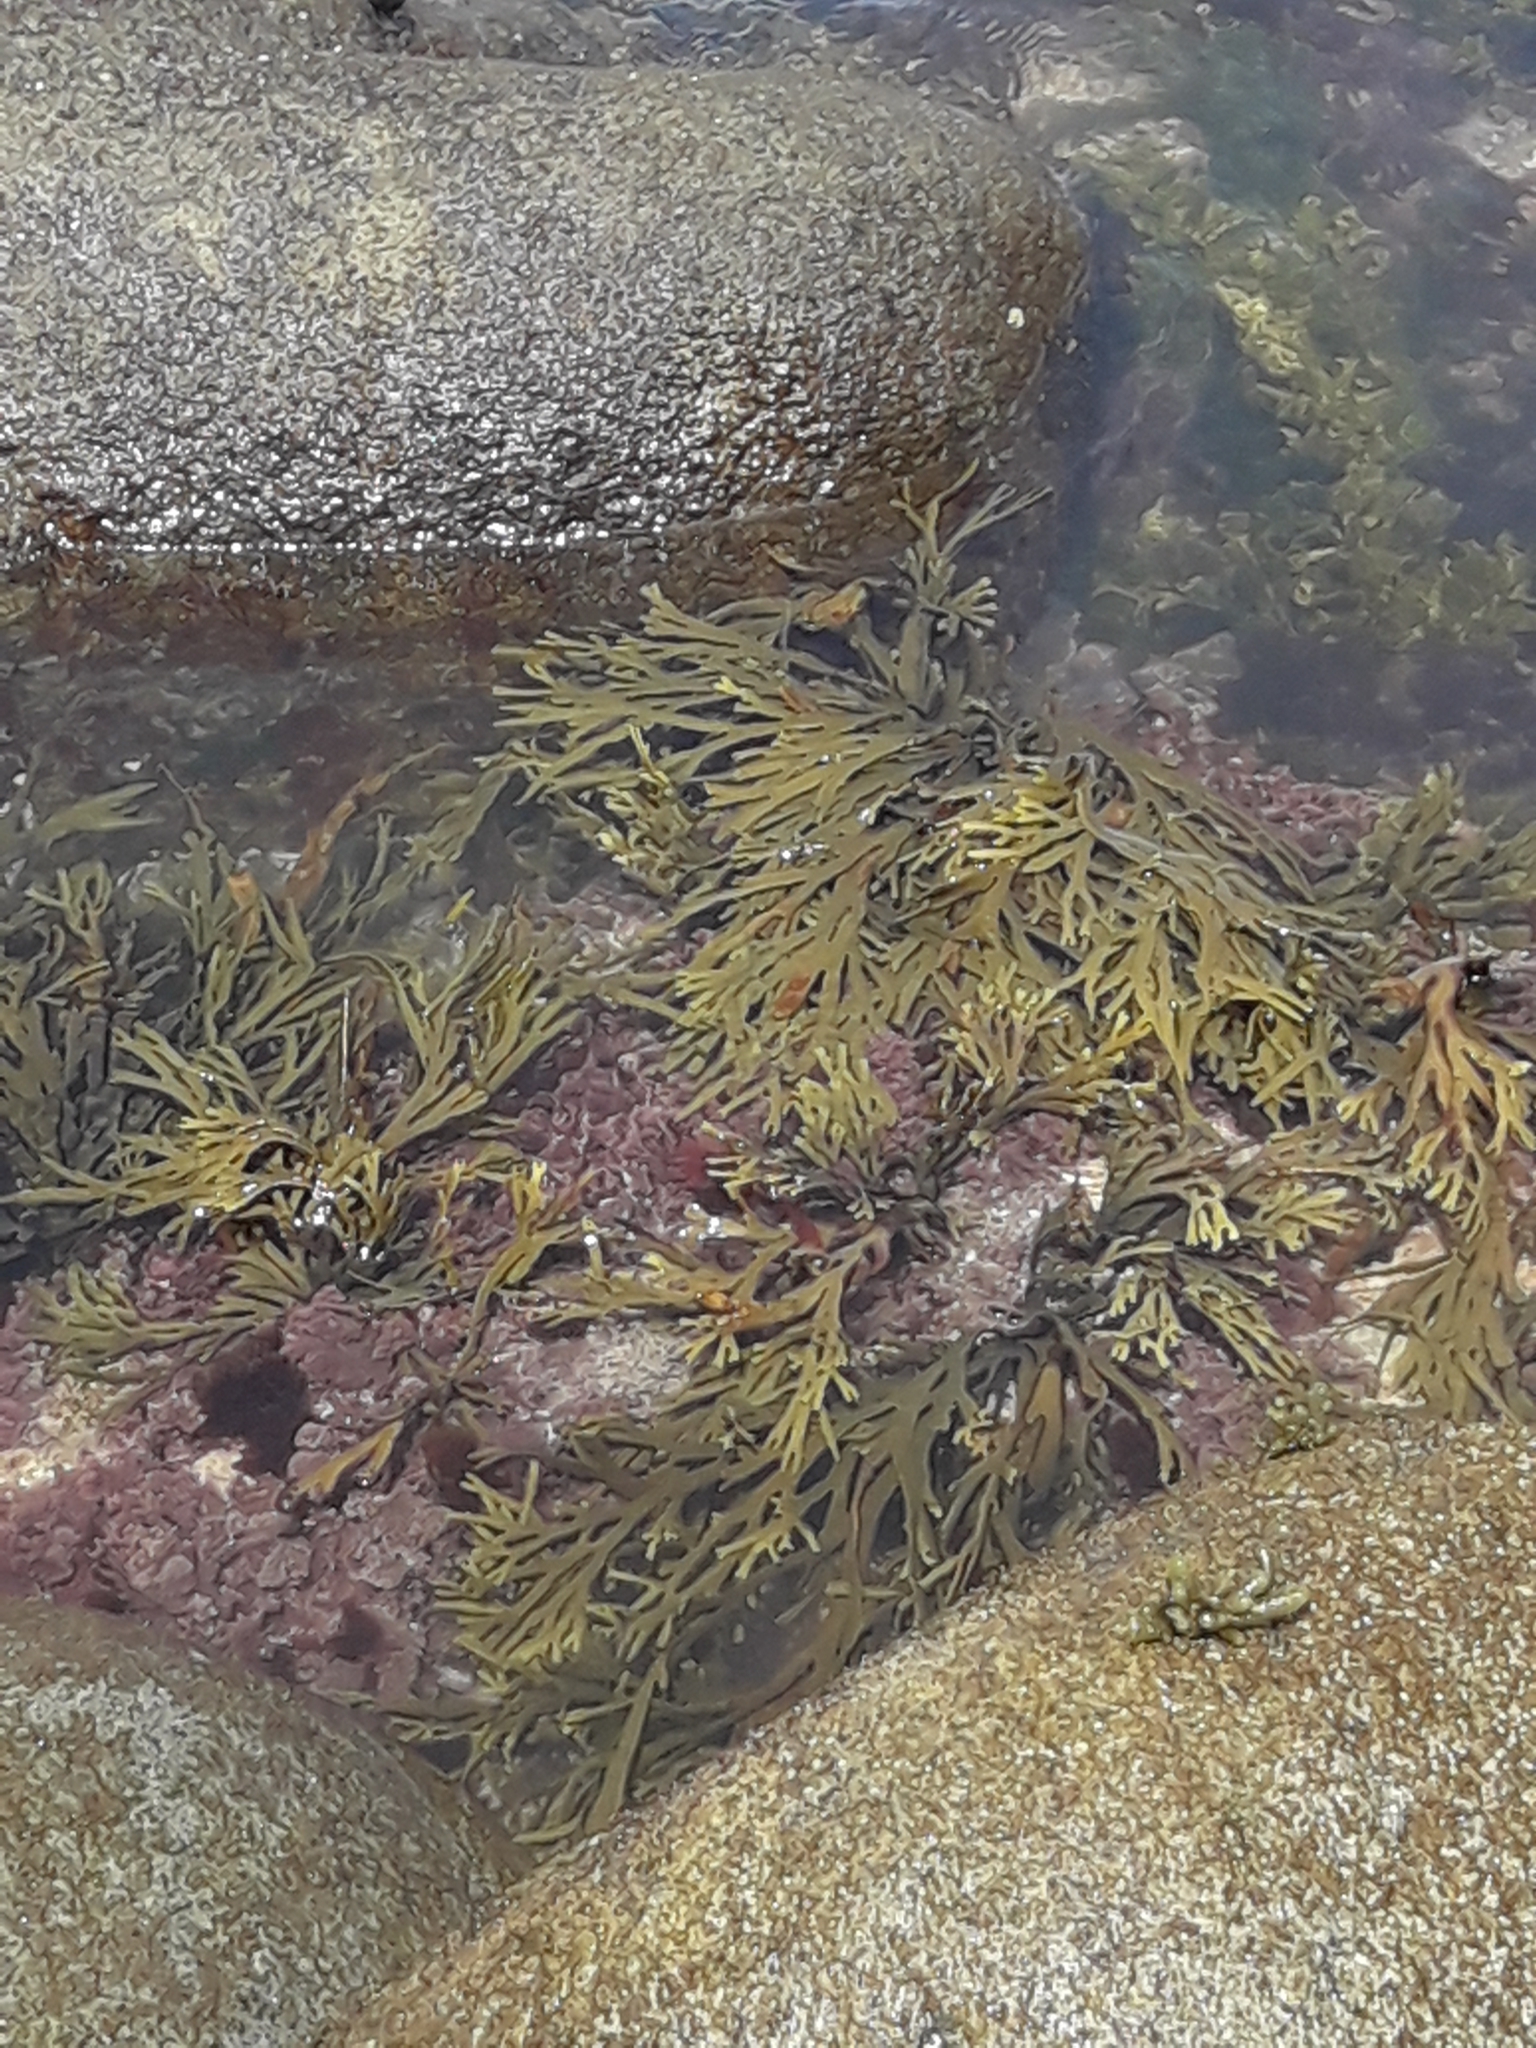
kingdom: Chromista
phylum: Ochrophyta
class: Phaeophyceae
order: Fucales
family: Xiphophoraceae
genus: Xiphophora
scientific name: Xiphophora gladiata
